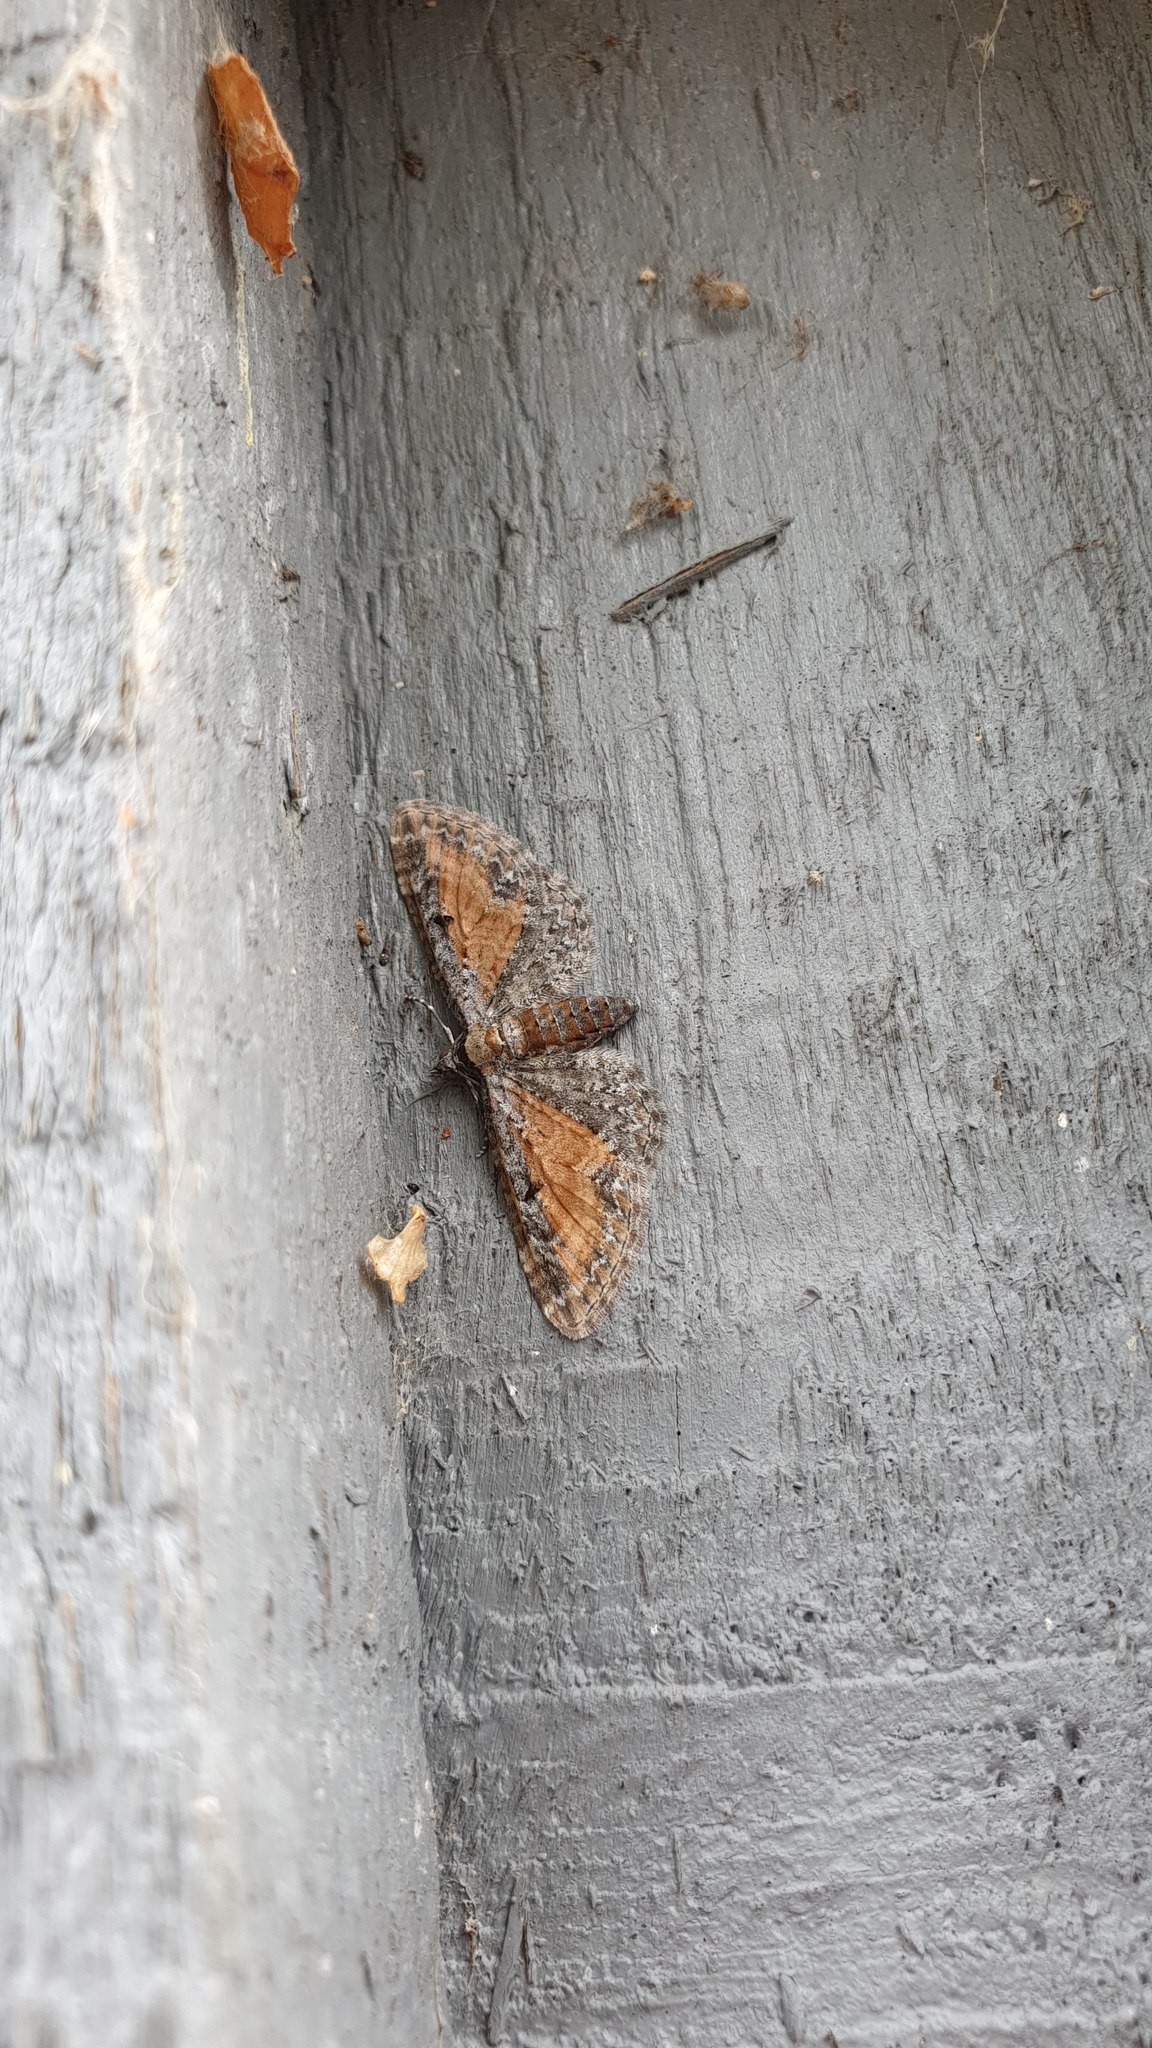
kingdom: Animalia
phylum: Arthropoda
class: Insecta
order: Lepidoptera
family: Geometridae
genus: Eupithecia
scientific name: Eupithecia icterata
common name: Tawny speckled pug
